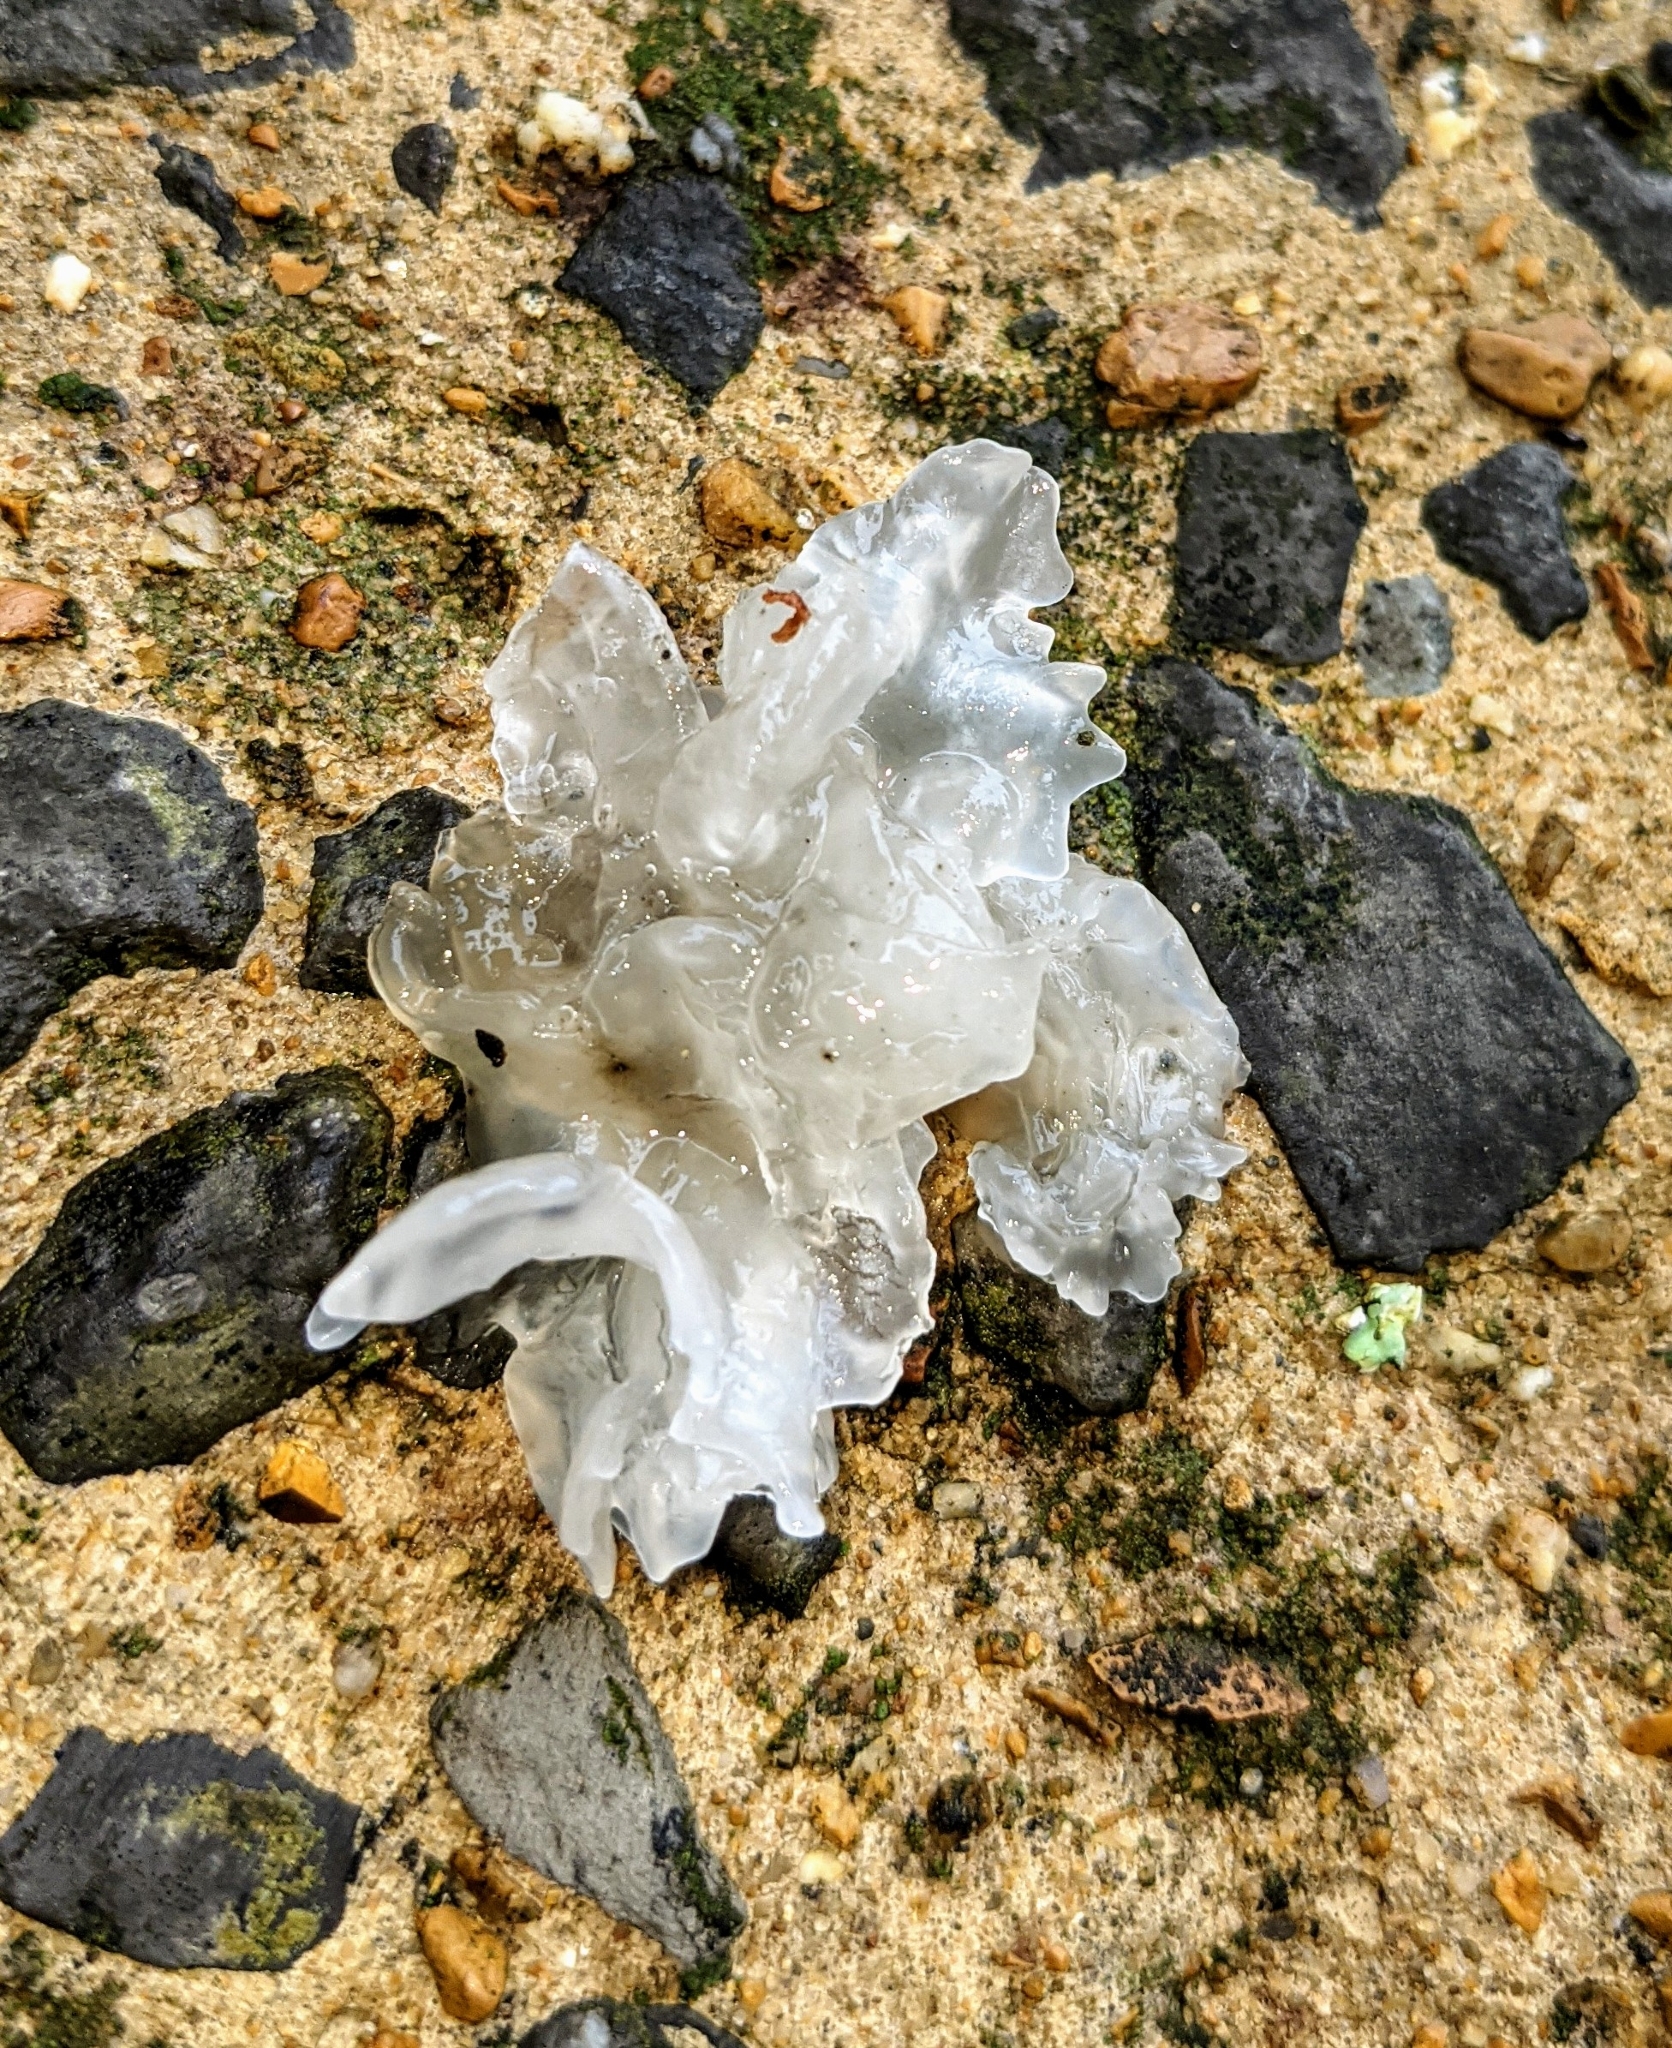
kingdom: Fungi
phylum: Basidiomycota
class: Tremellomycetes
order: Tremellales
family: Tremellaceae
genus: Tremella
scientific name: Tremella fuciformis
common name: Snow fungus
